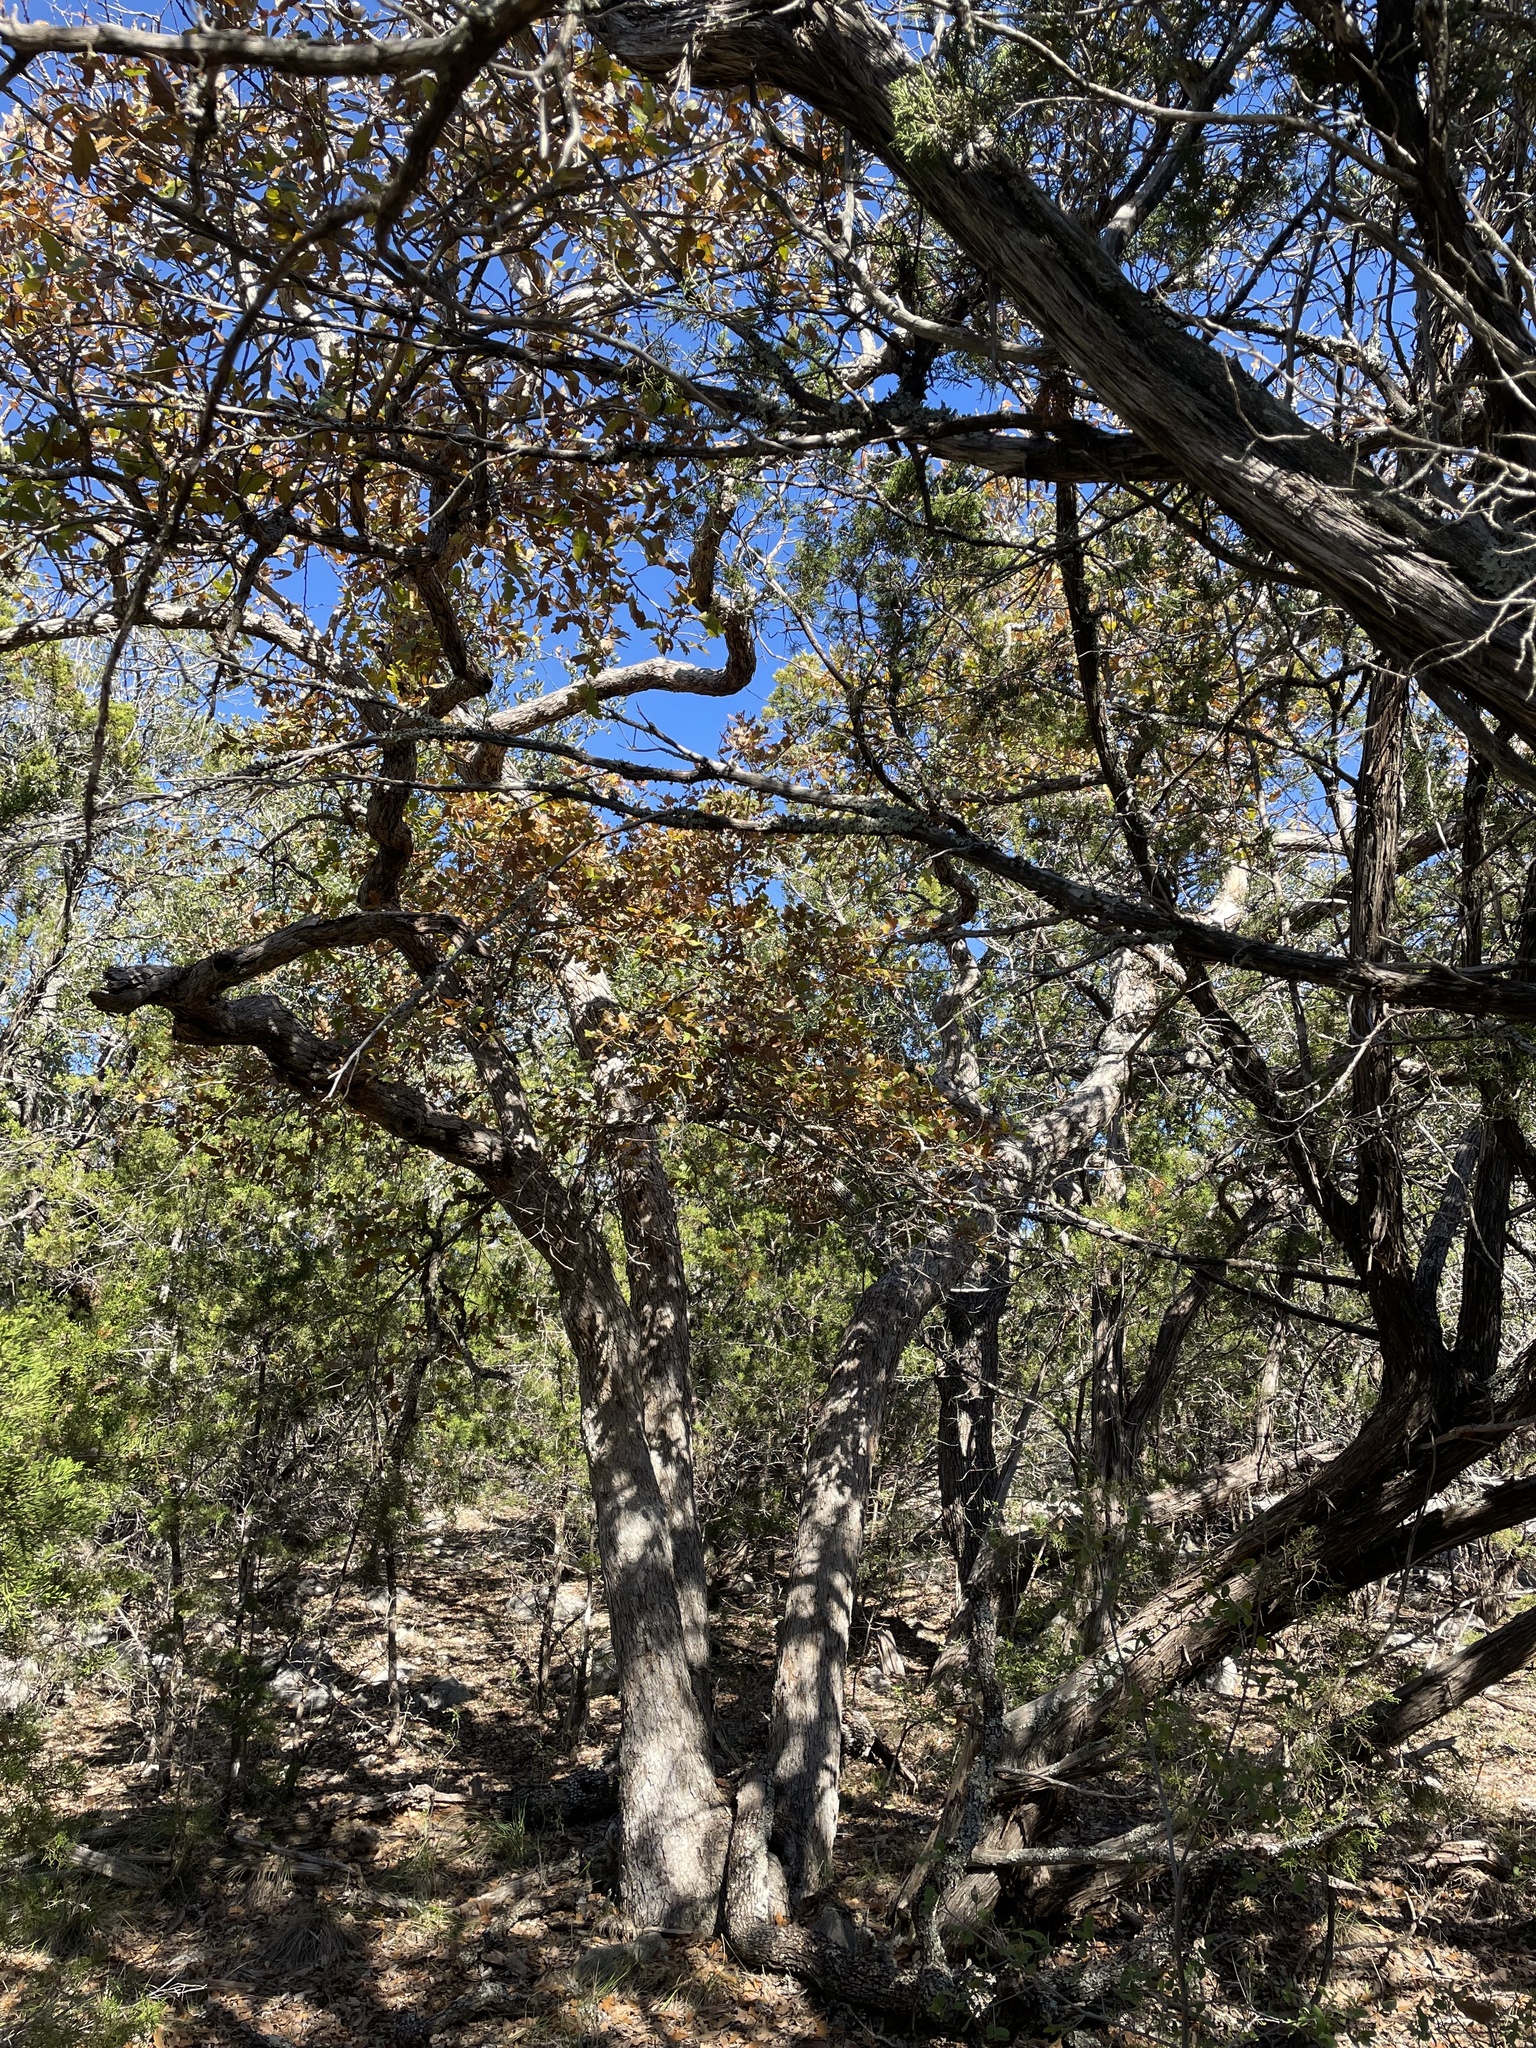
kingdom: Plantae
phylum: Tracheophyta
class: Magnoliopsida
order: Fagales
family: Fagaceae
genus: Quercus
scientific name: Quercus sinuata
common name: Durand oak
